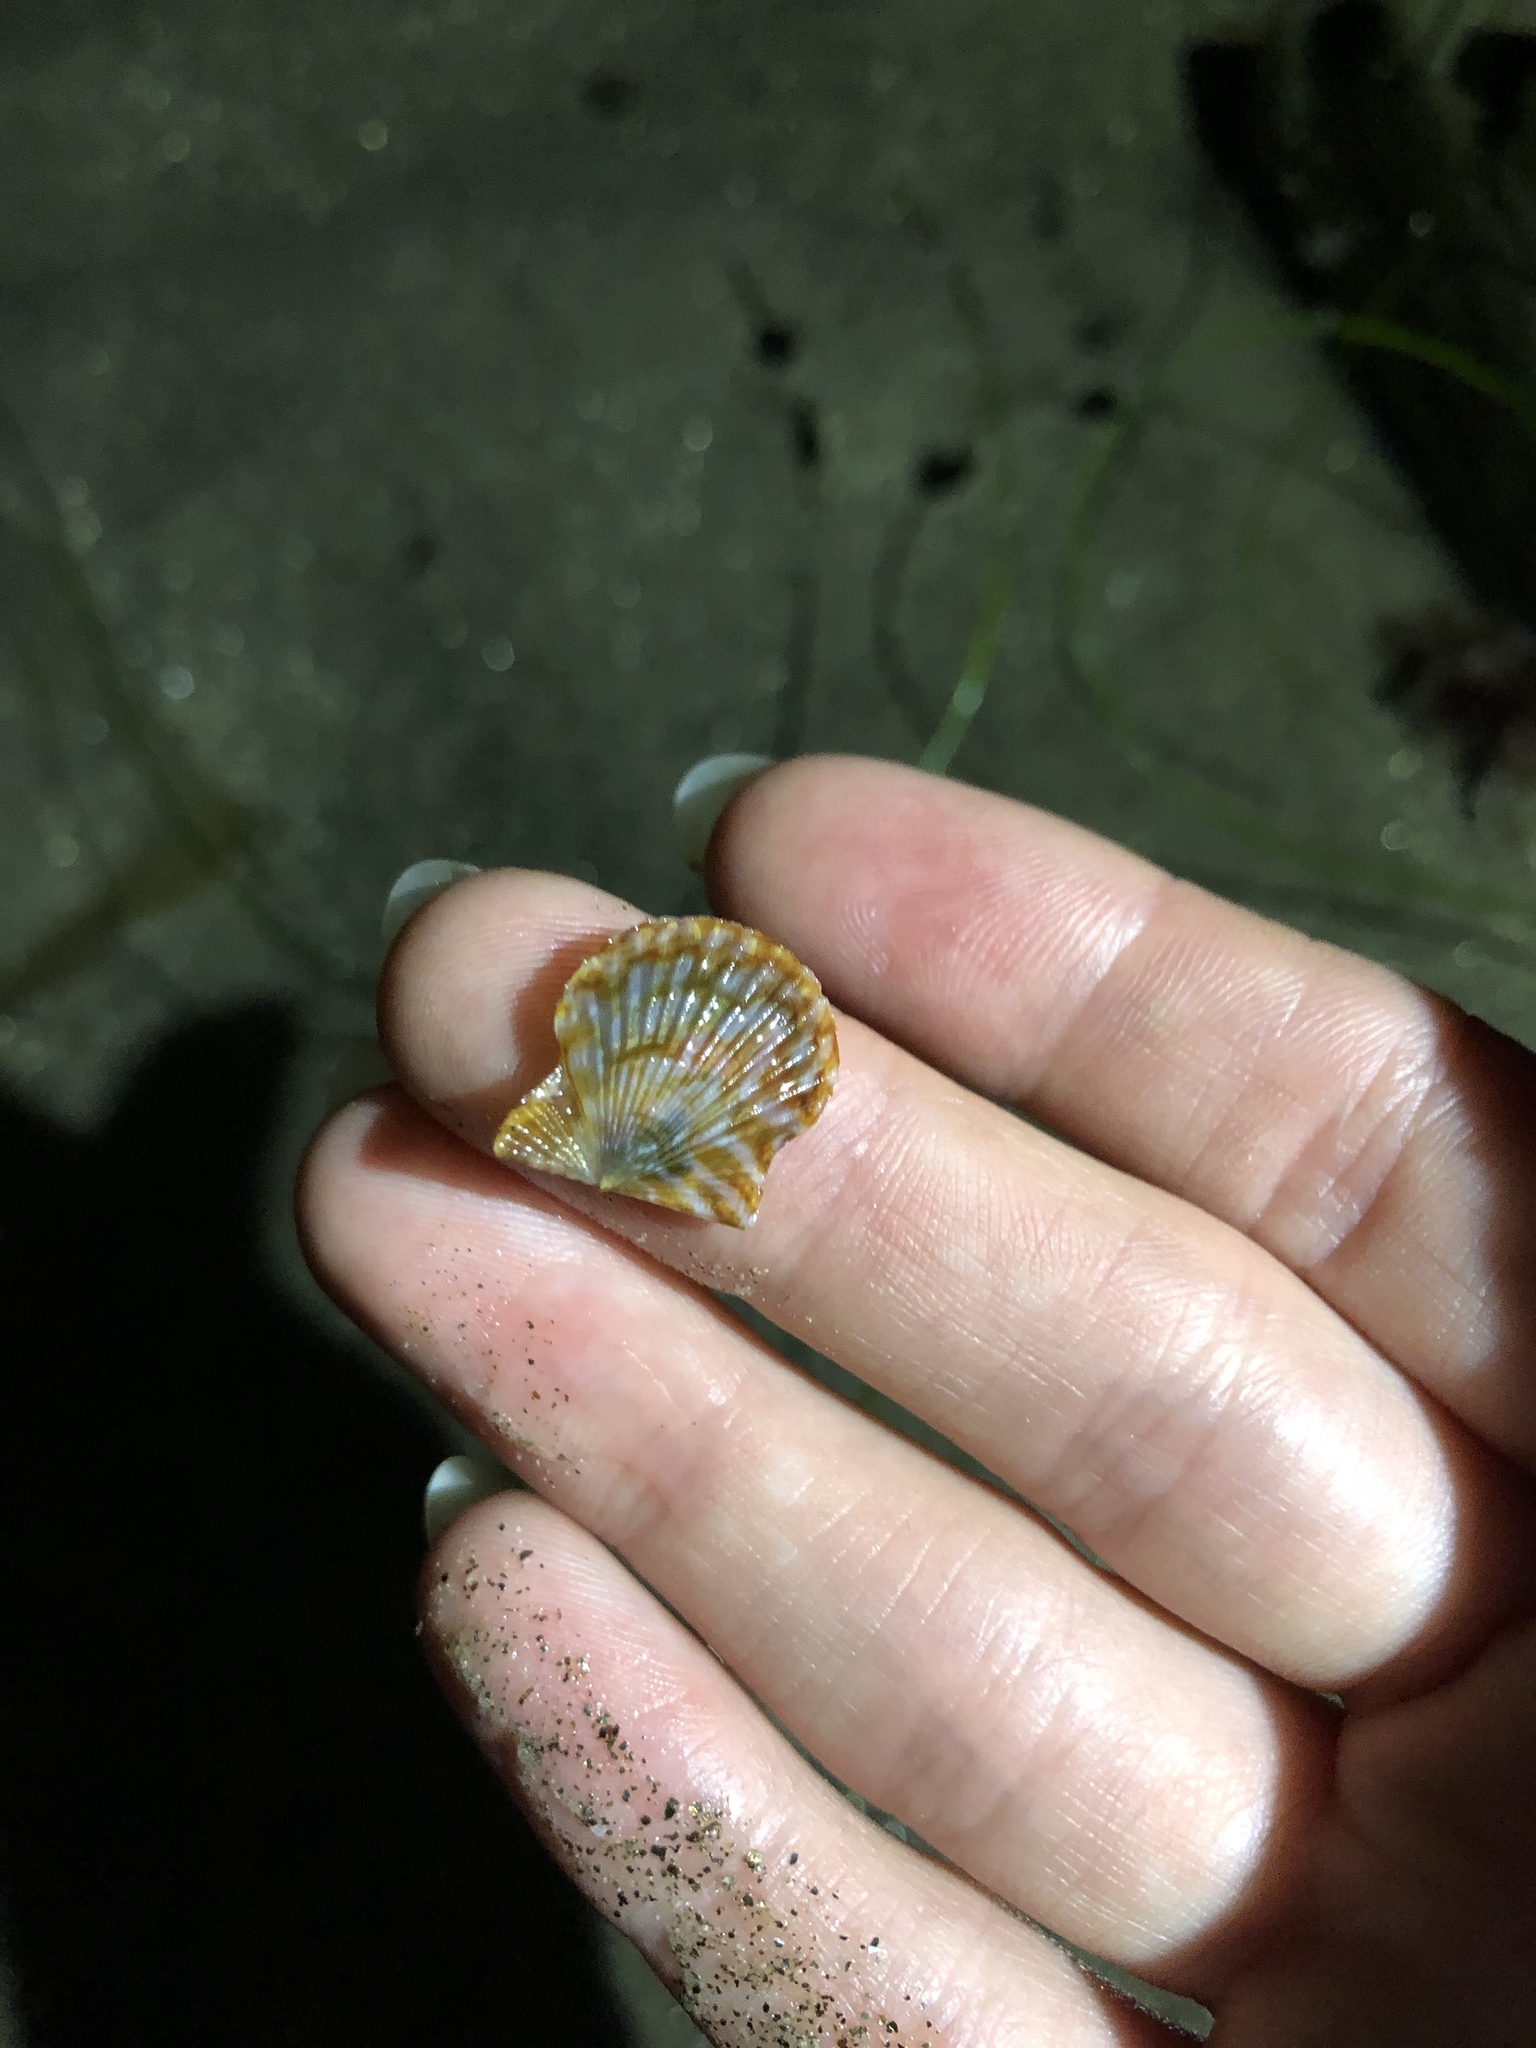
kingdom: Animalia
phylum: Mollusca
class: Bivalvia
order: Pectinida
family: Pectinidae
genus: Leptopecten
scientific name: Leptopecten latiauratus
